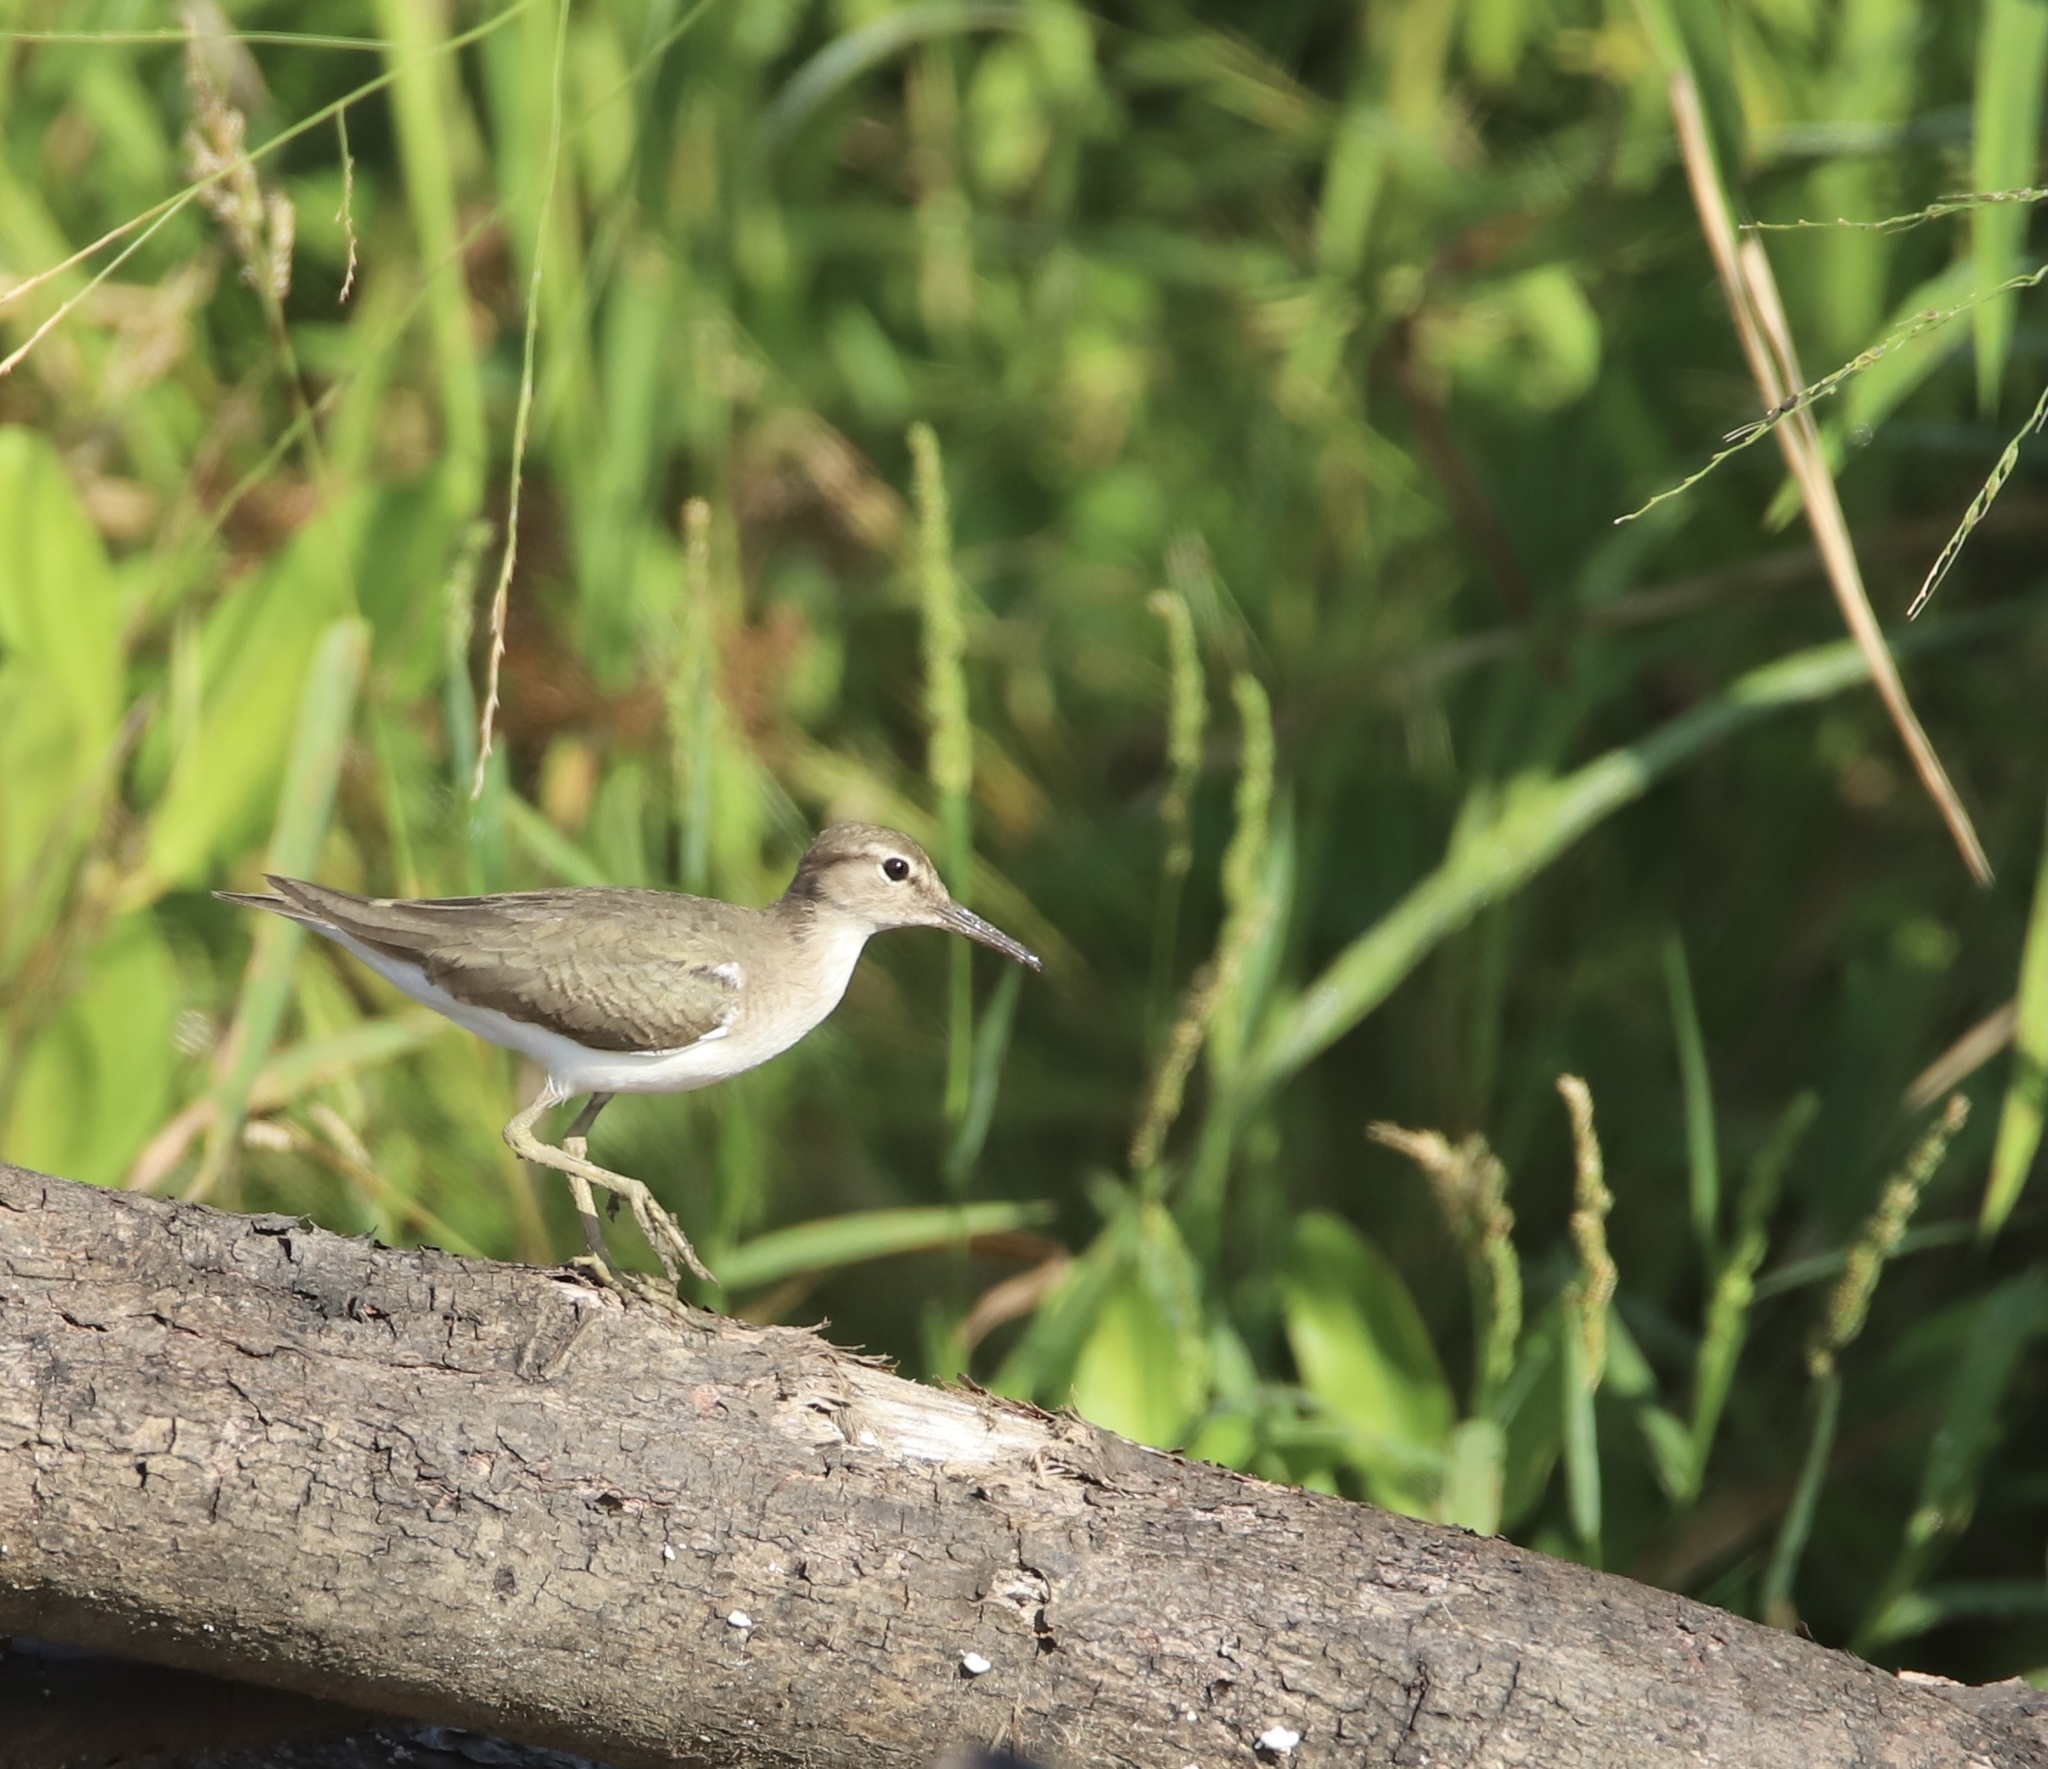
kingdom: Animalia
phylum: Chordata
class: Aves
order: Charadriiformes
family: Scolopacidae
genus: Actitis
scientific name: Actitis macularius
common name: Spotted sandpiper
